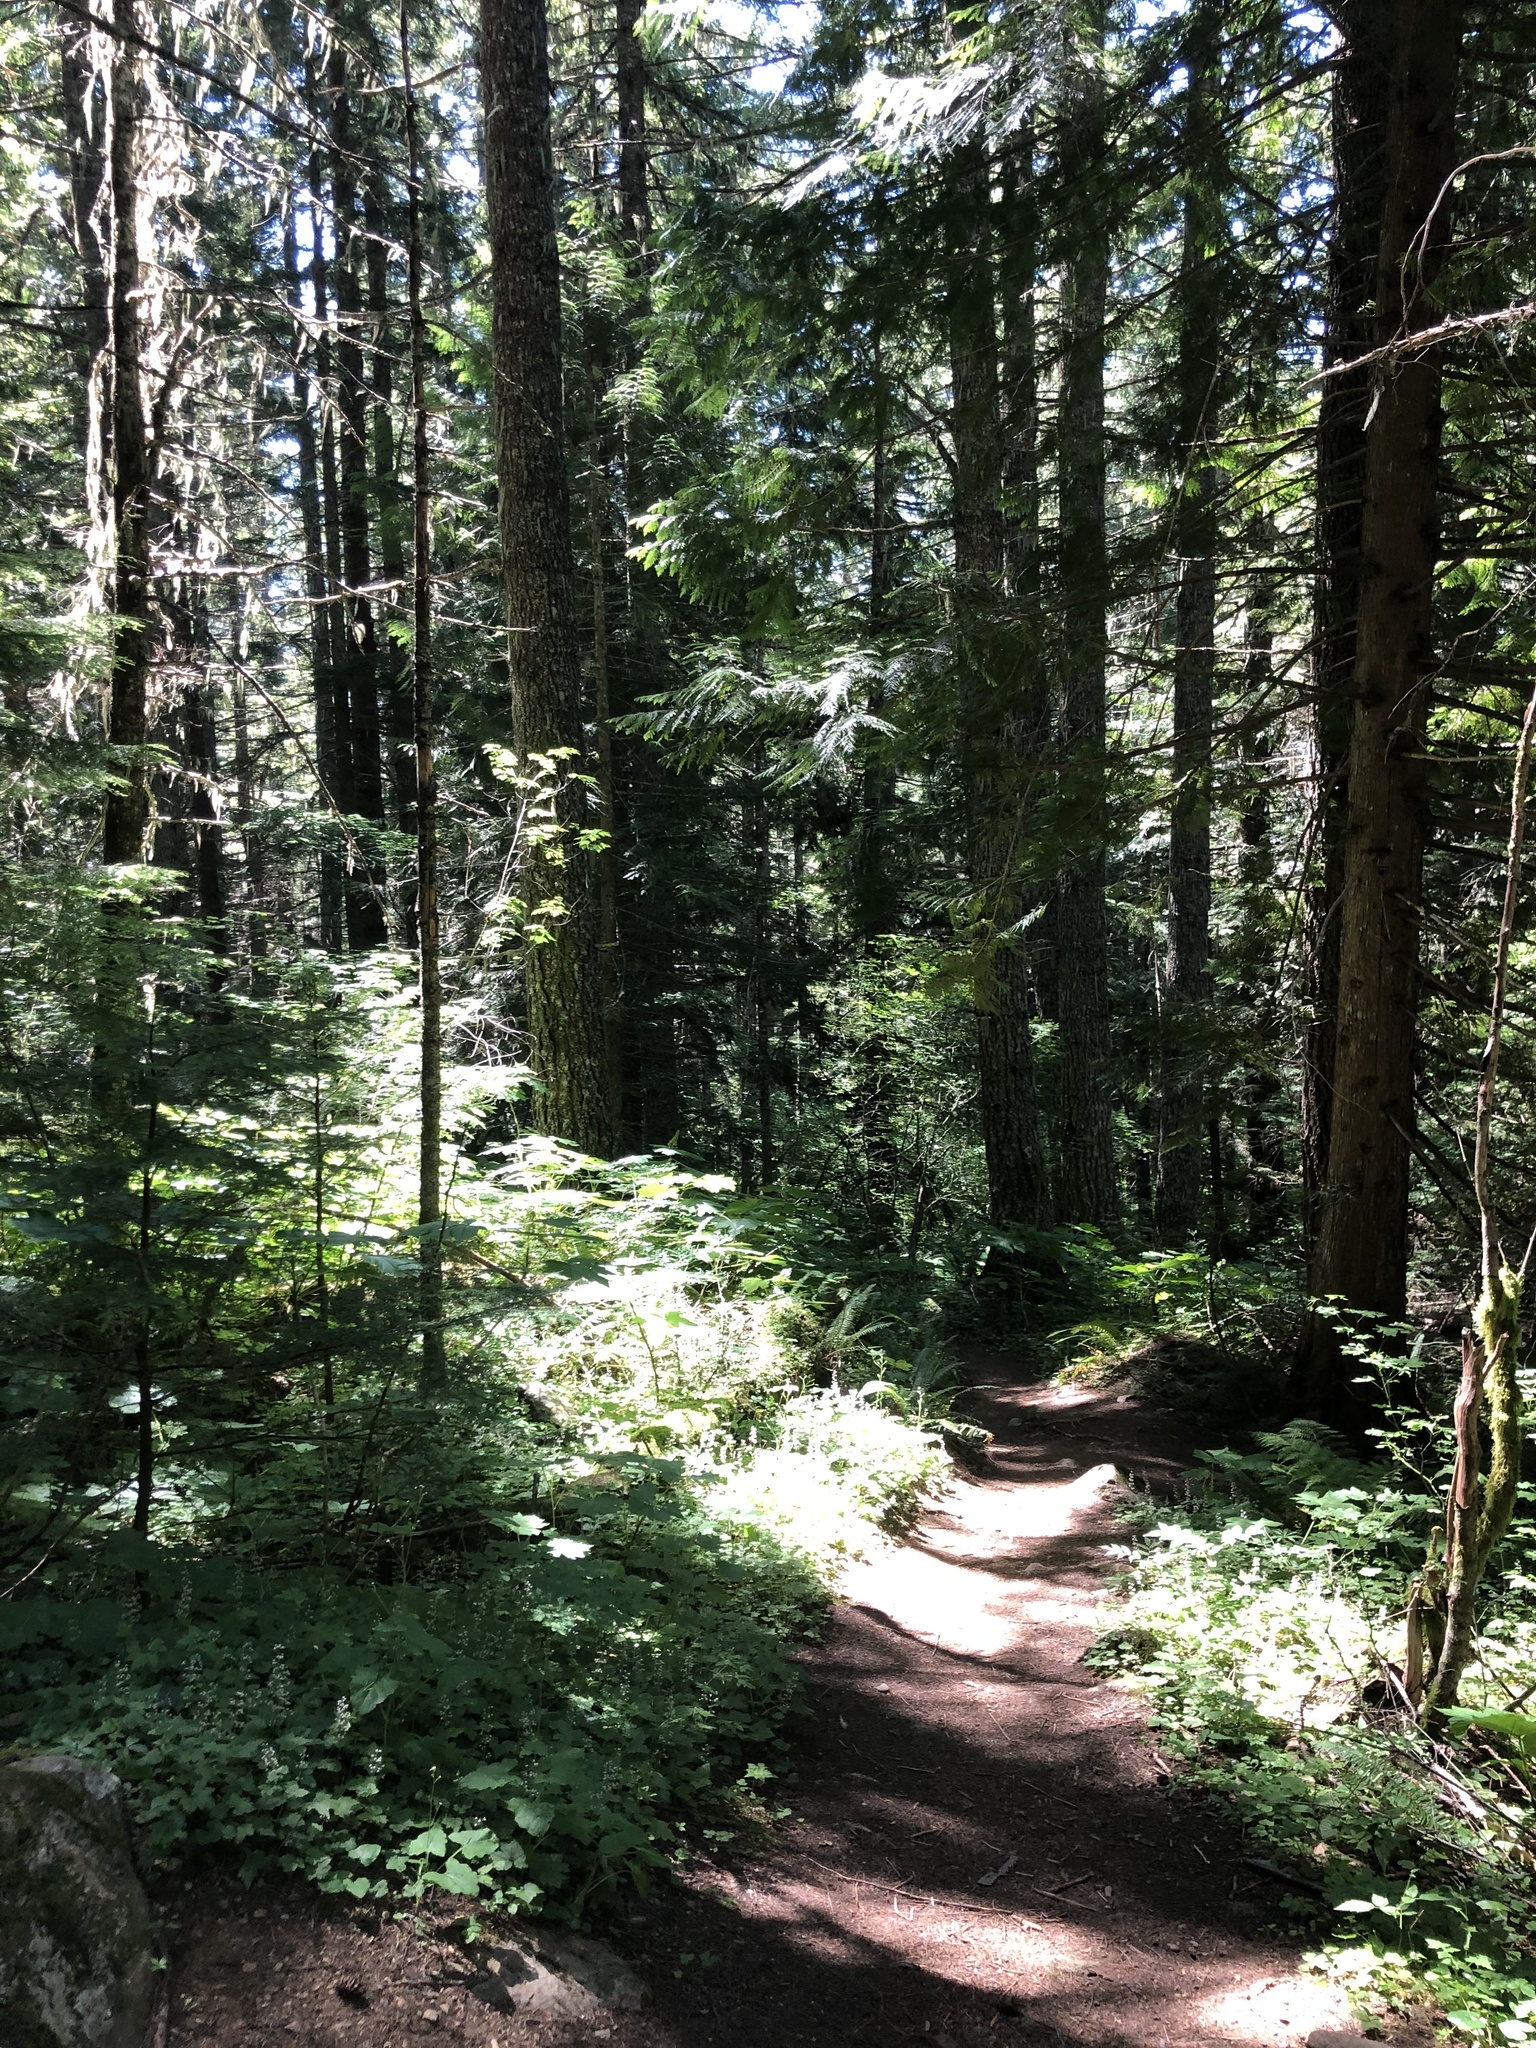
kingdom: Plantae
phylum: Tracheophyta
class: Pinopsida
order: Pinales
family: Cupressaceae
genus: Thuja
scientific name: Thuja plicata
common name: Western red-cedar
